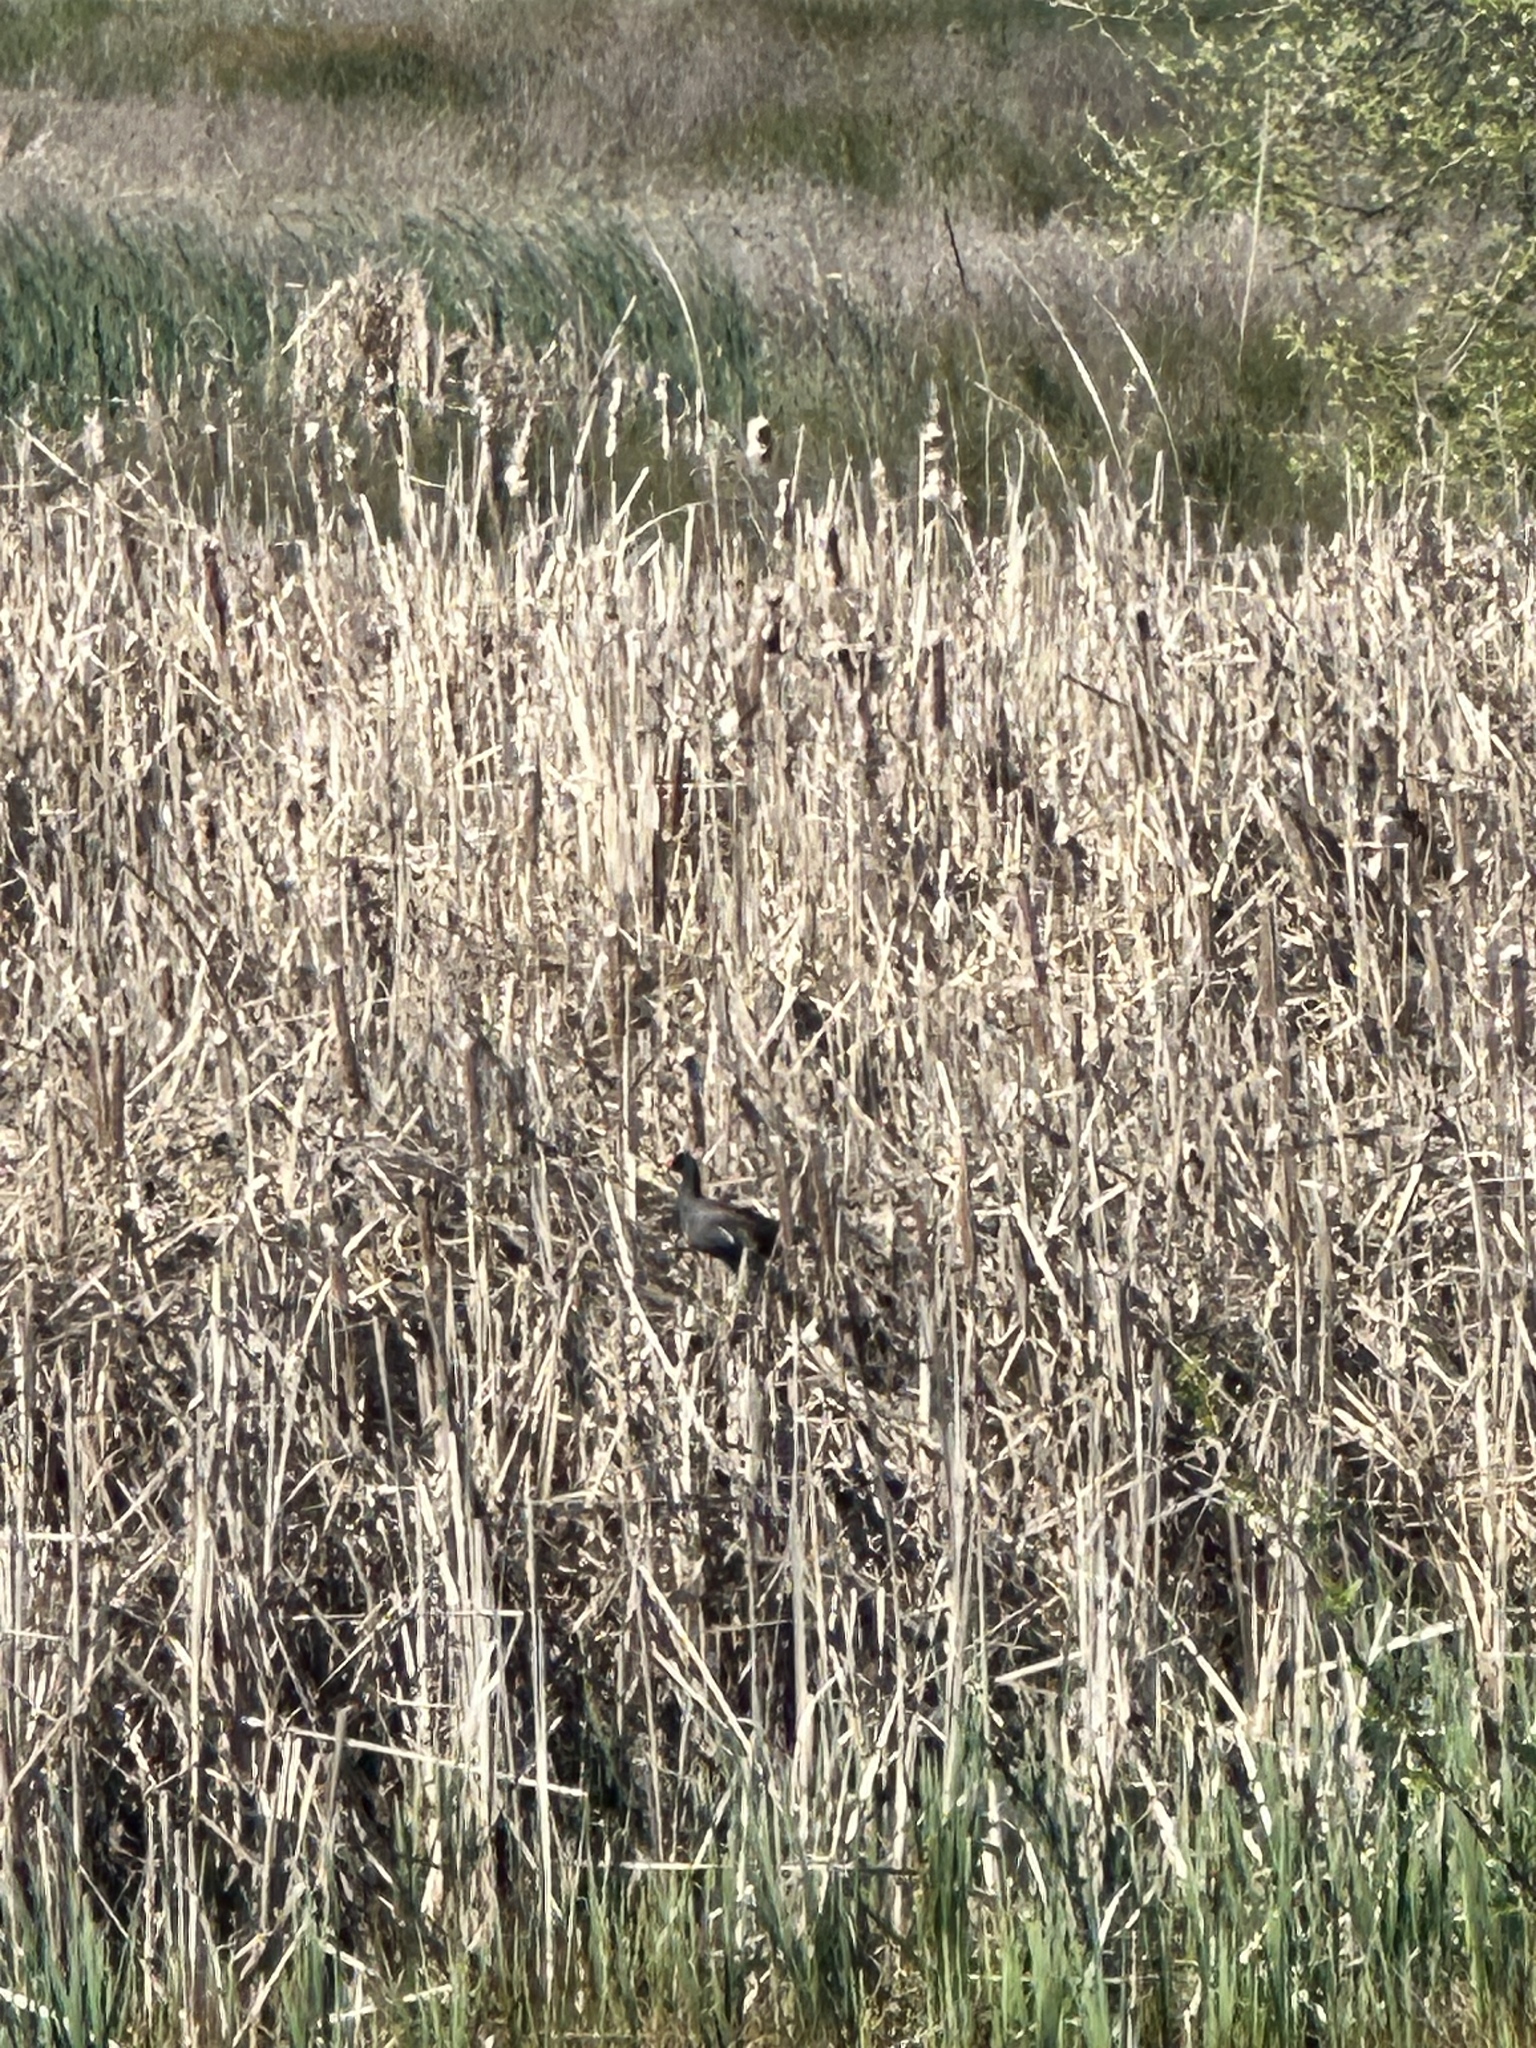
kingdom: Animalia
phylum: Chordata
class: Aves
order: Gruiformes
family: Rallidae
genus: Gallinula
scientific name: Gallinula chloropus
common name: Common moorhen
